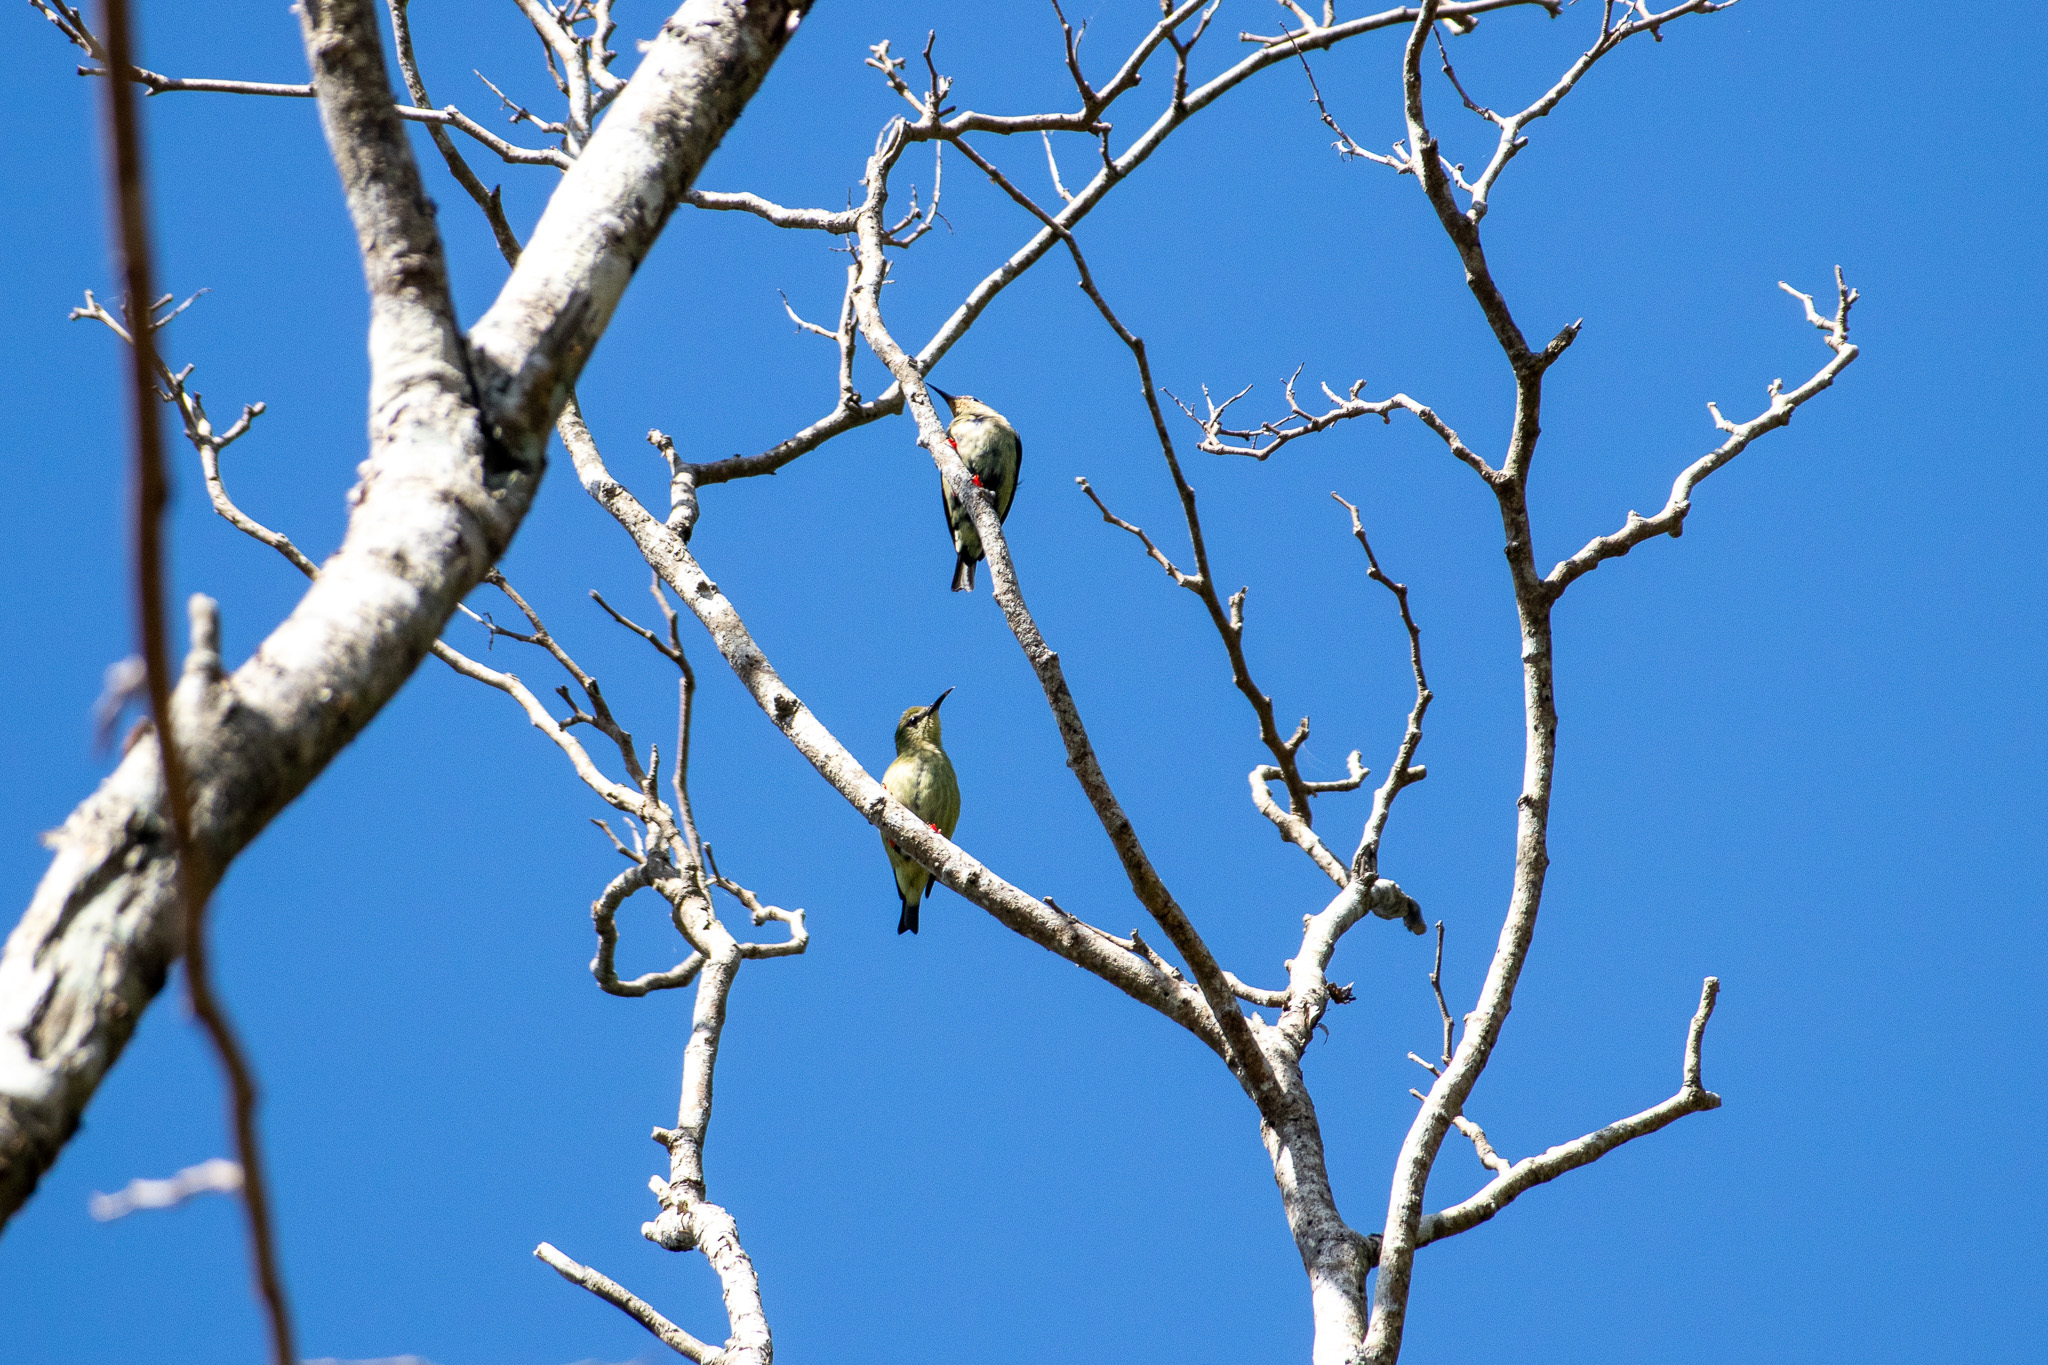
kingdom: Animalia
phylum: Chordata
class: Aves
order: Passeriformes
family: Thraupidae
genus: Cyanerpes
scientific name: Cyanerpes cyaneus
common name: Red-legged honeycreeper
